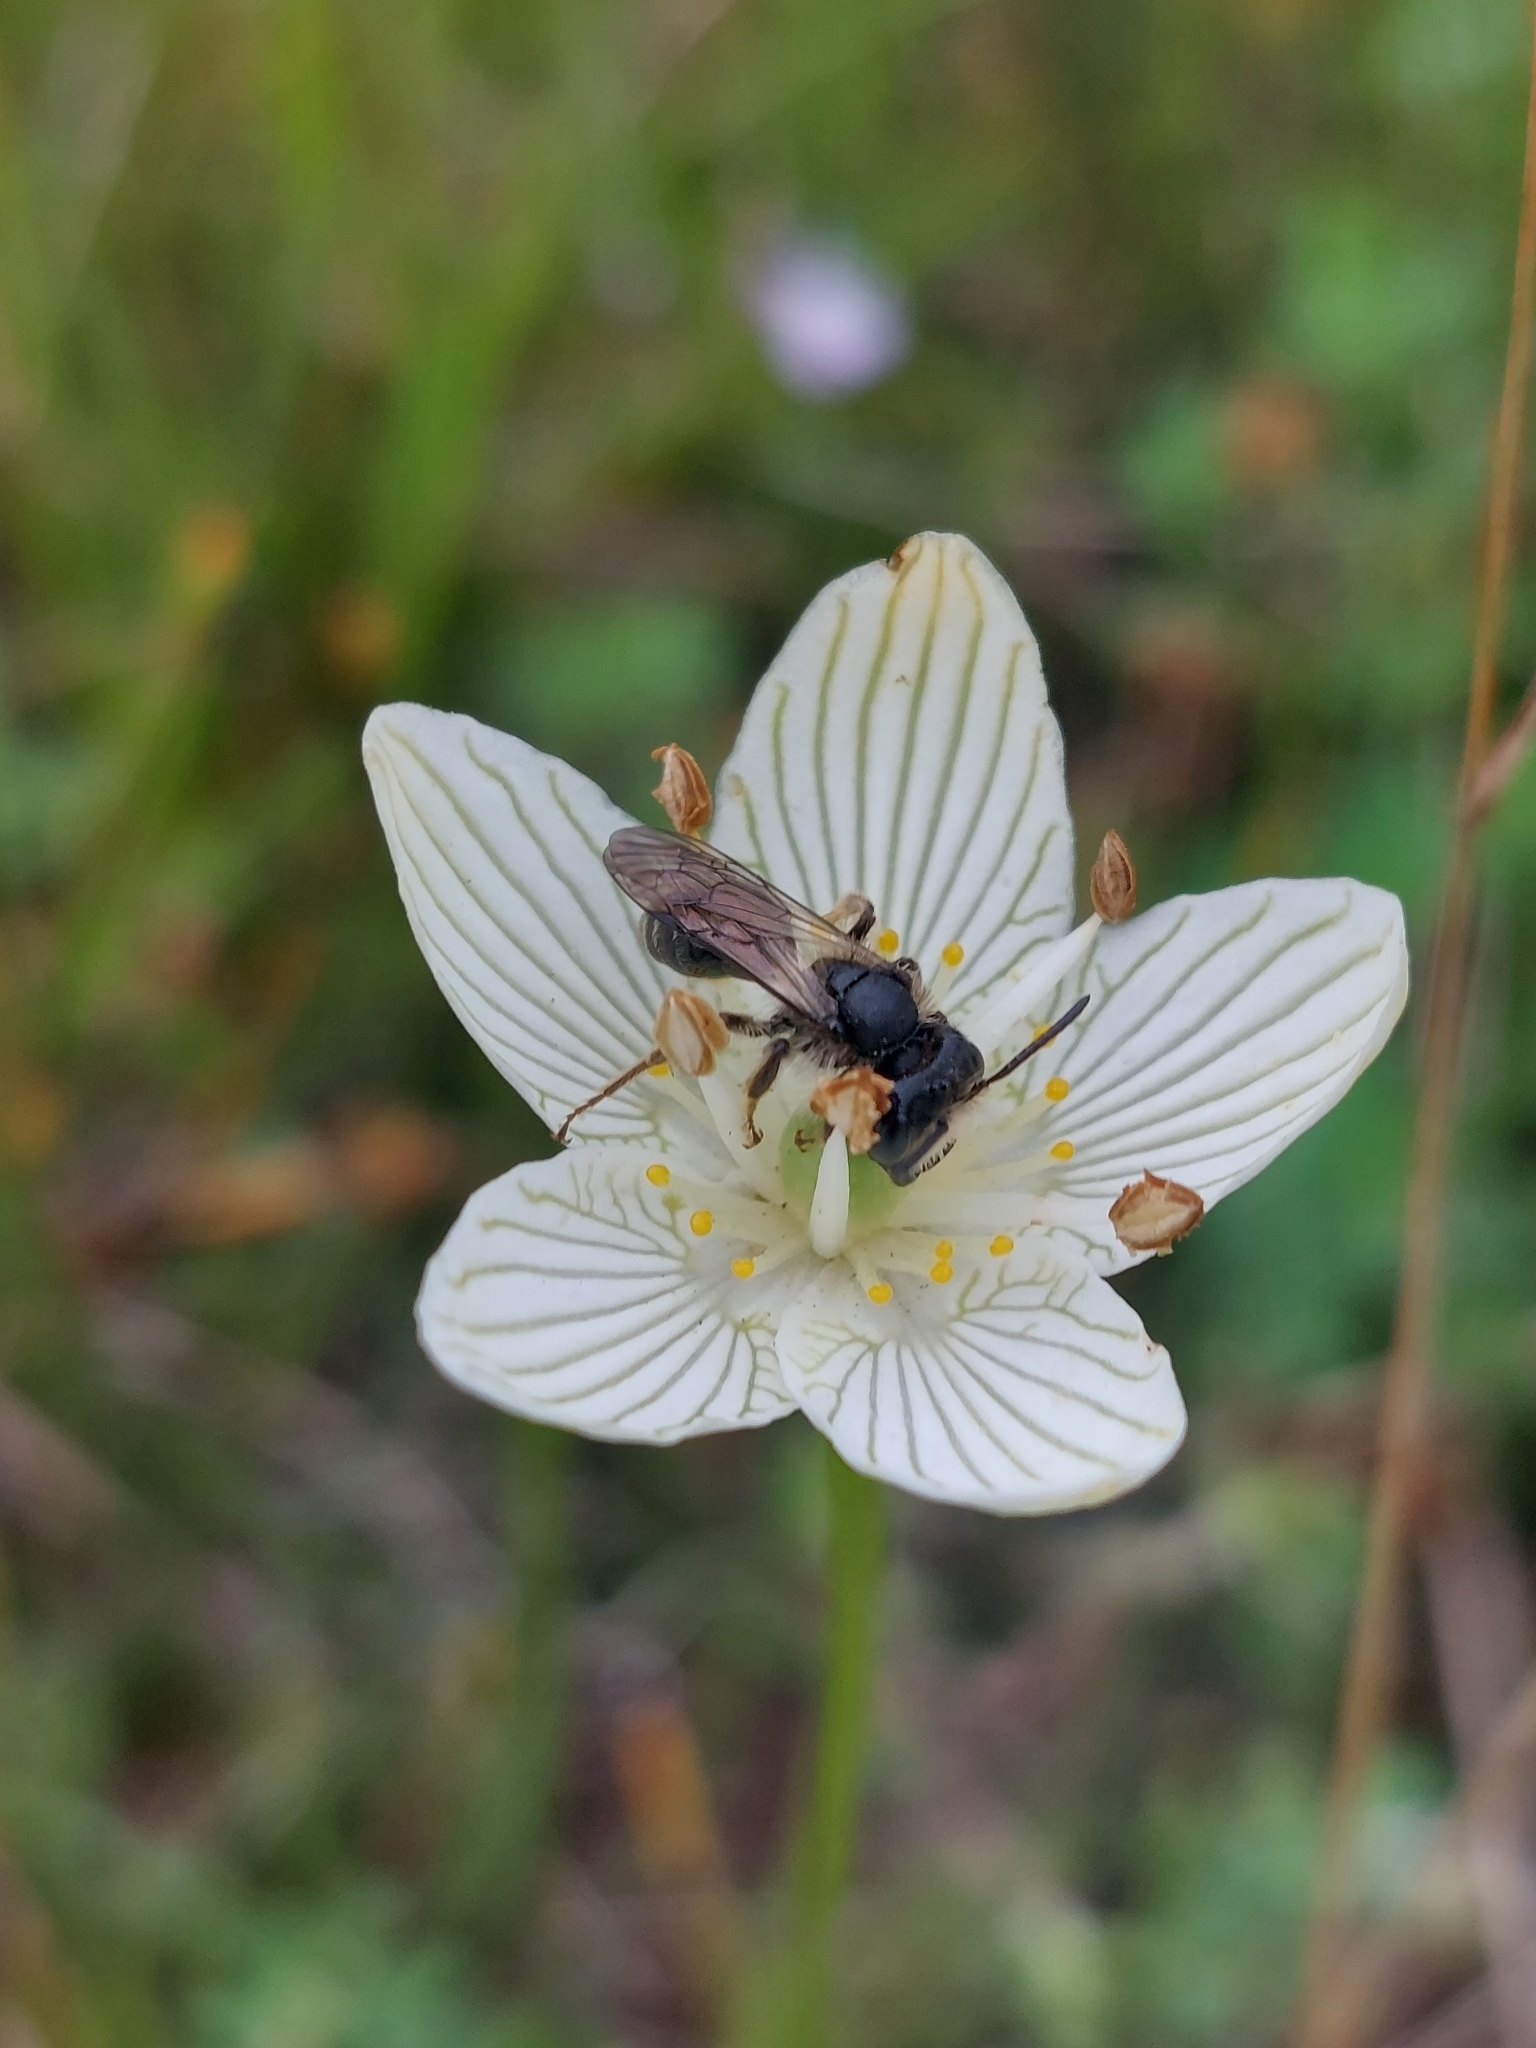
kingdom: Animalia
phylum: Arthropoda
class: Insecta
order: Hymenoptera
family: Andrenidae
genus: Andrena
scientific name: Andrena parnassiae
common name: Parnassia miner
